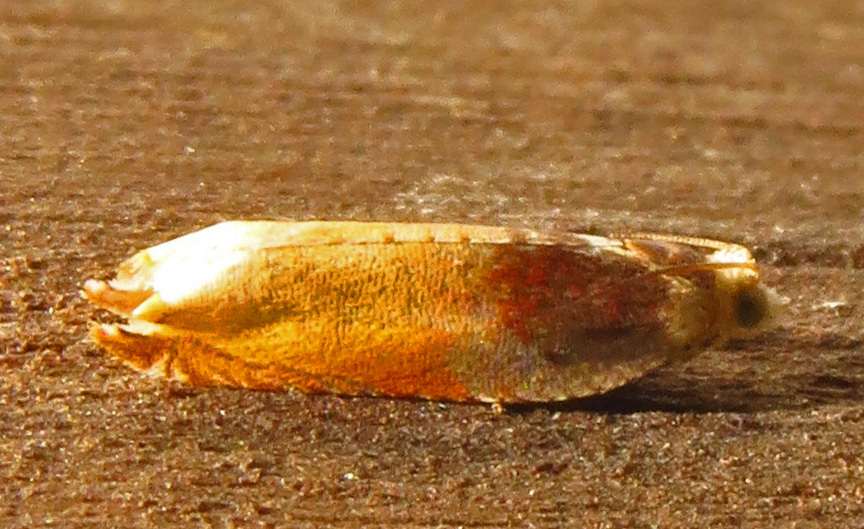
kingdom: Animalia
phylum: Arthropoda
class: Insecta
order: Lepidoptera
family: Tortricidae
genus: Ancylis
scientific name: Ancylis divisana
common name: Two-toned ancylis moth
